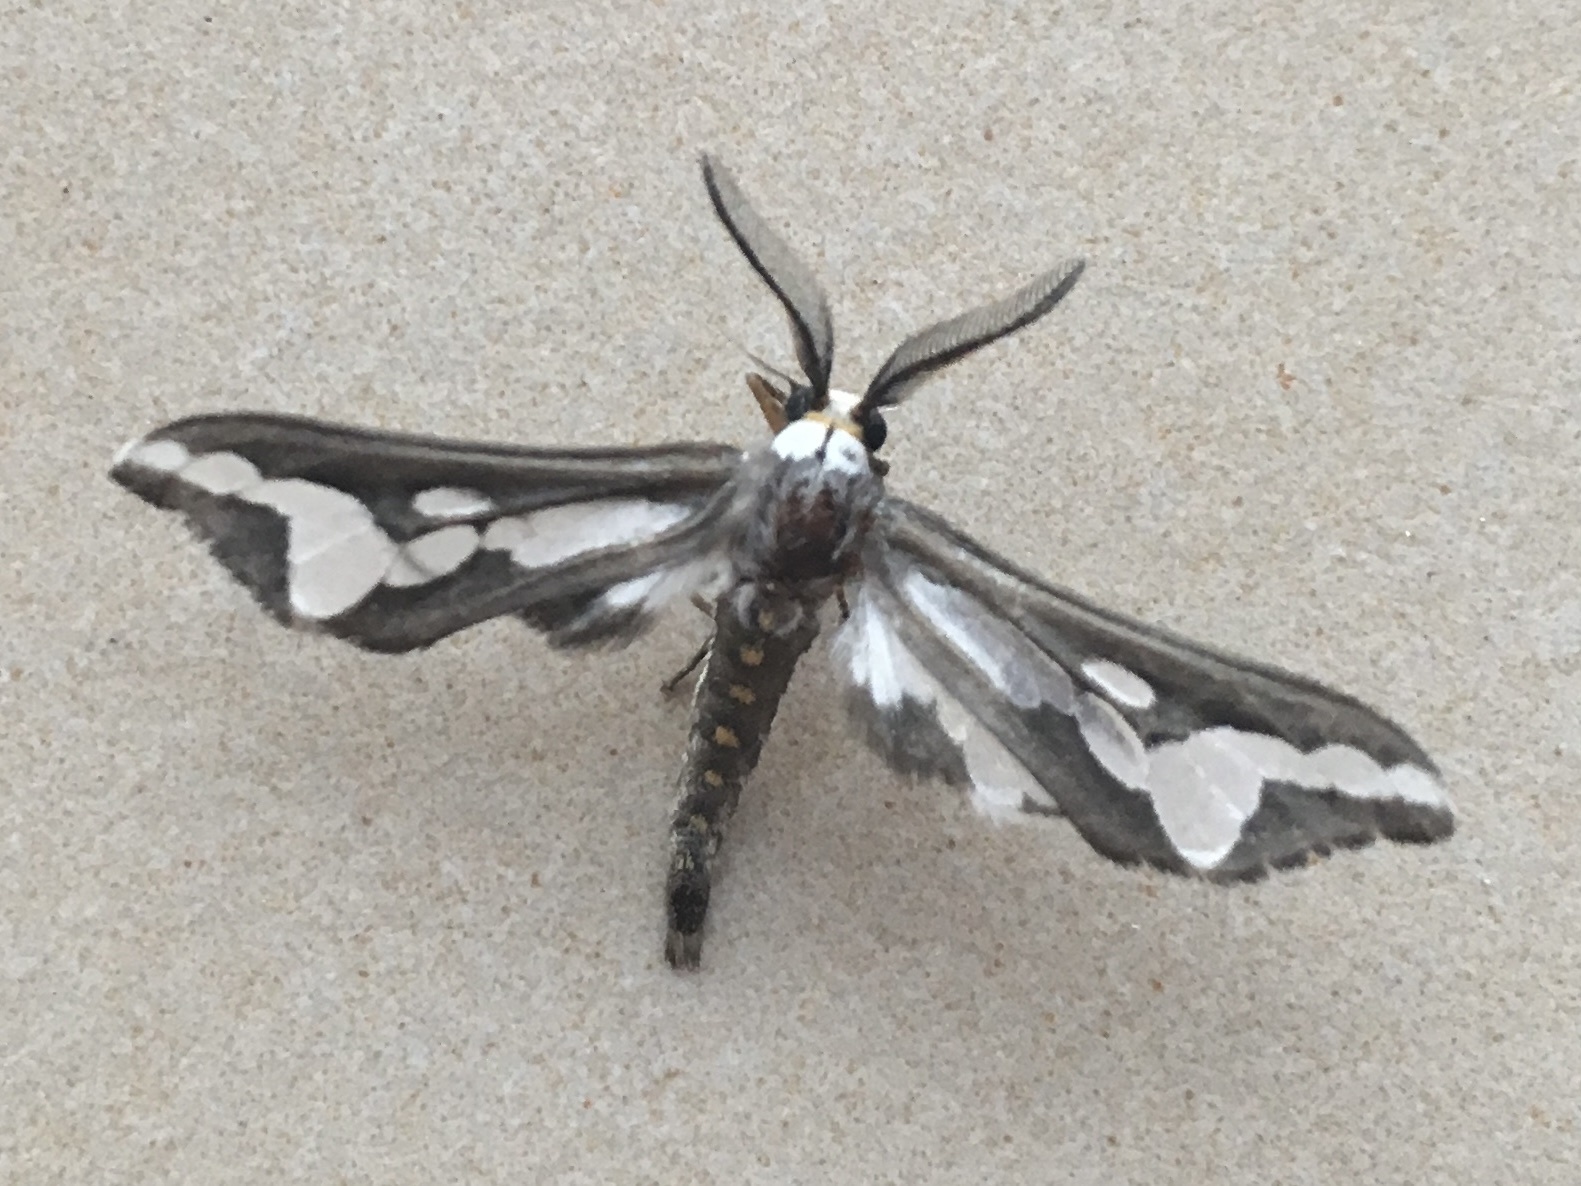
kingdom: Animalia
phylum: Arthropoda
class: Insecta
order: Lepidoptera
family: Erebidae
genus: Thyretes
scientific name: Thyretes caffra
